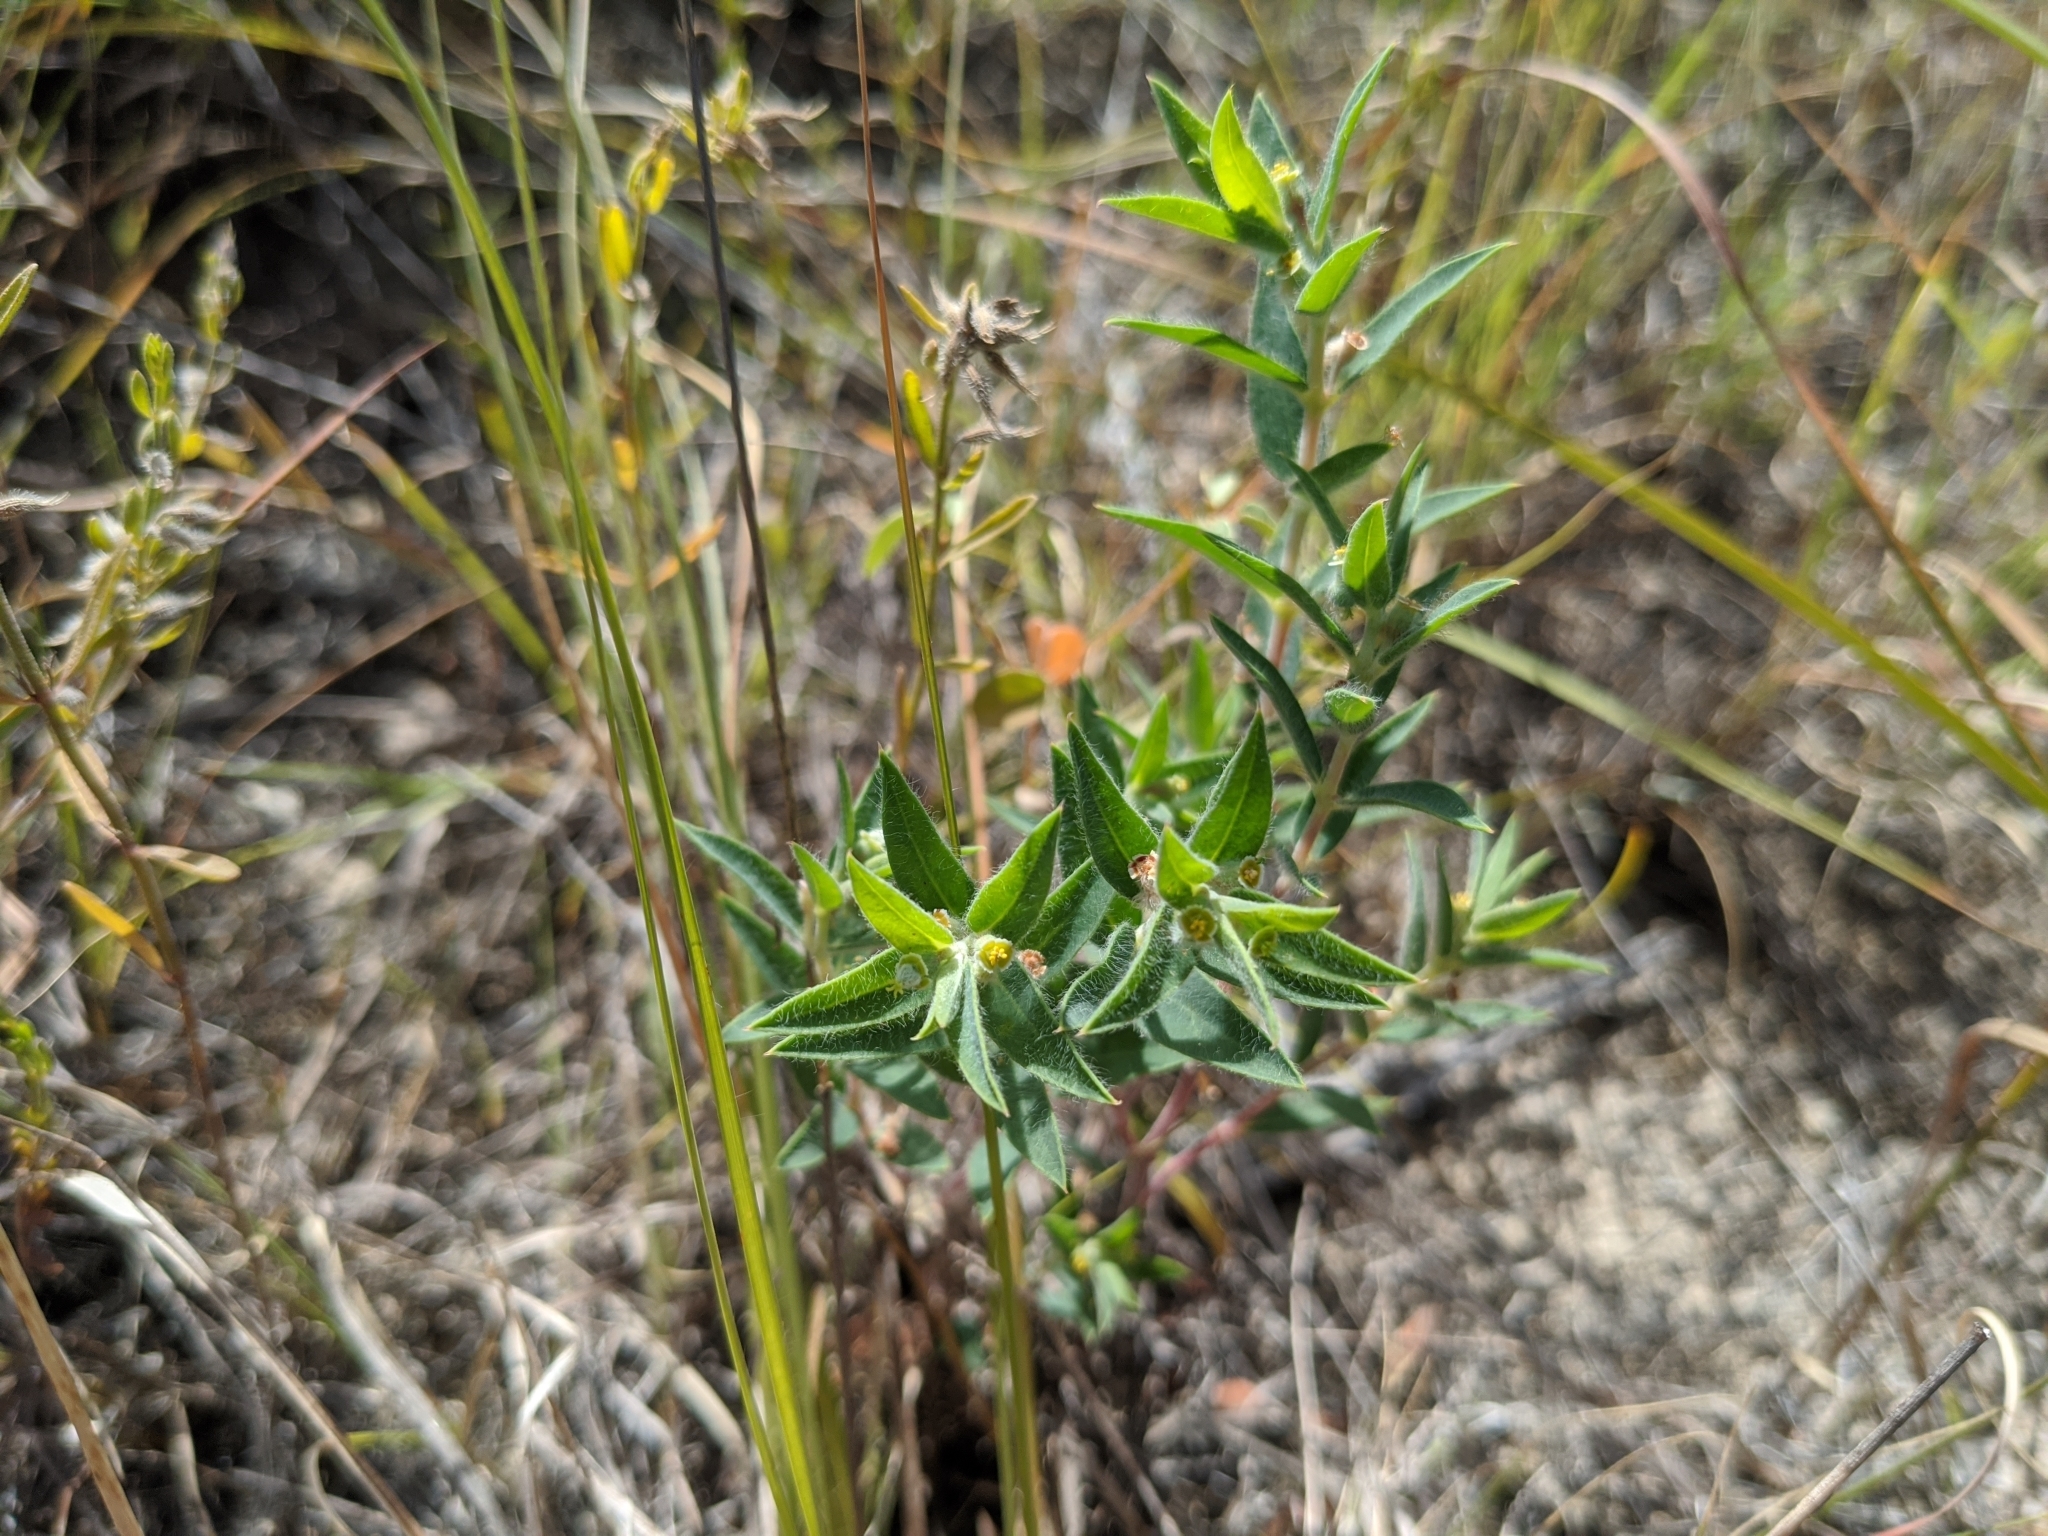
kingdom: Plantae
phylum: Tracheophyta
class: Magnoliopsida
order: Malpighiales
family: Euphorbiaceae
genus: Euphorbia
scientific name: Euphorbia acuta
